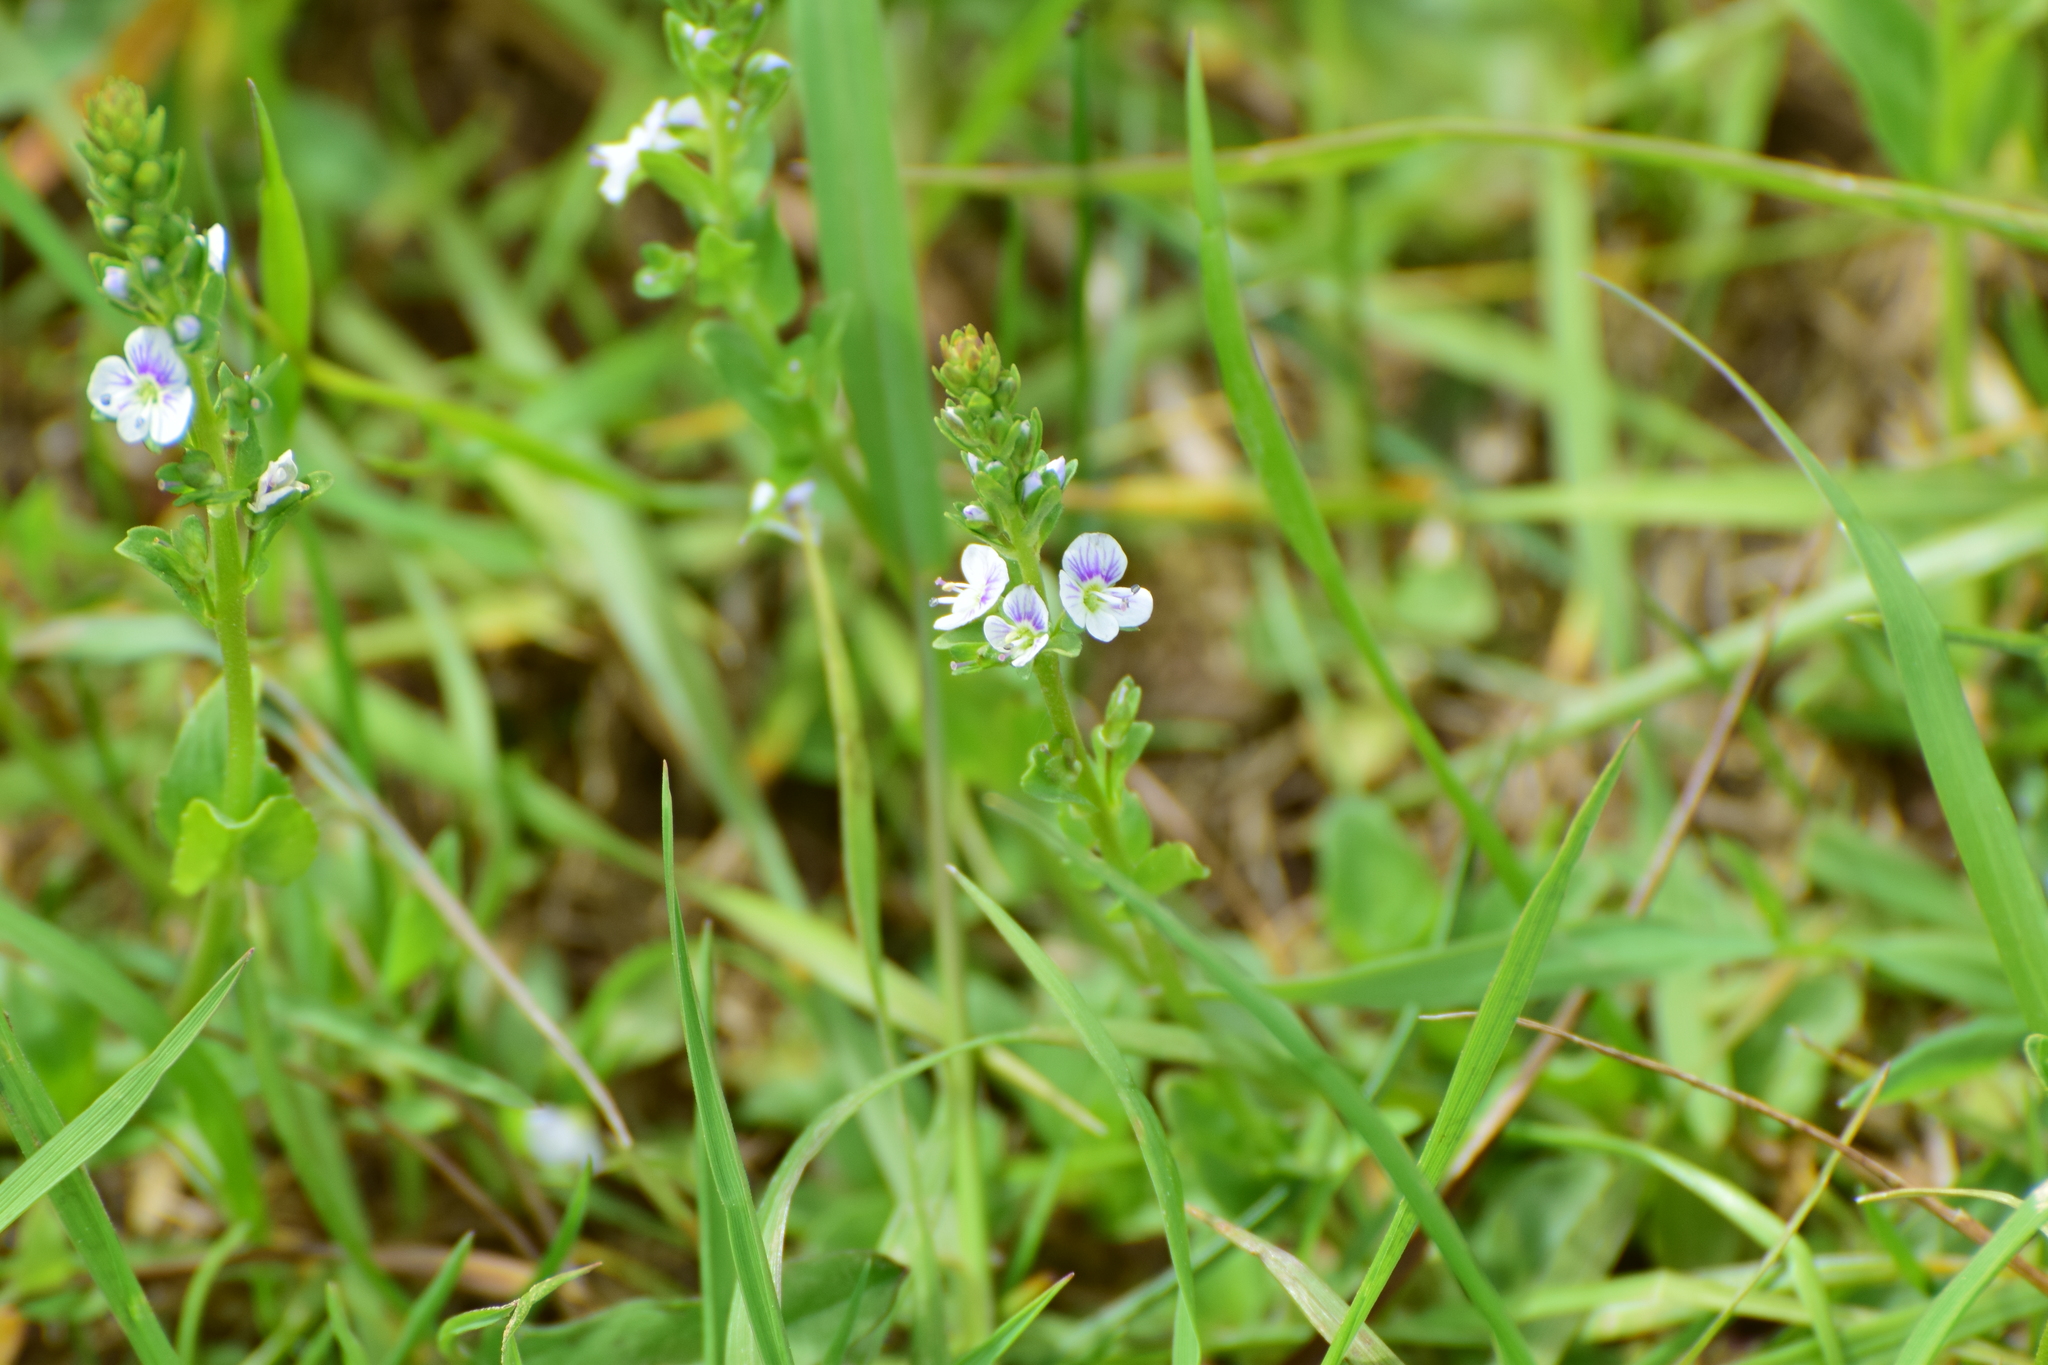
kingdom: Plantae
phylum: Tracheophyta
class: Magnoliopsida
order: Lamiales
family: Plantaginaceae
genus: Veronica
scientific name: Veronica serpyllifolia
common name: Thyme-leaved speedwell
